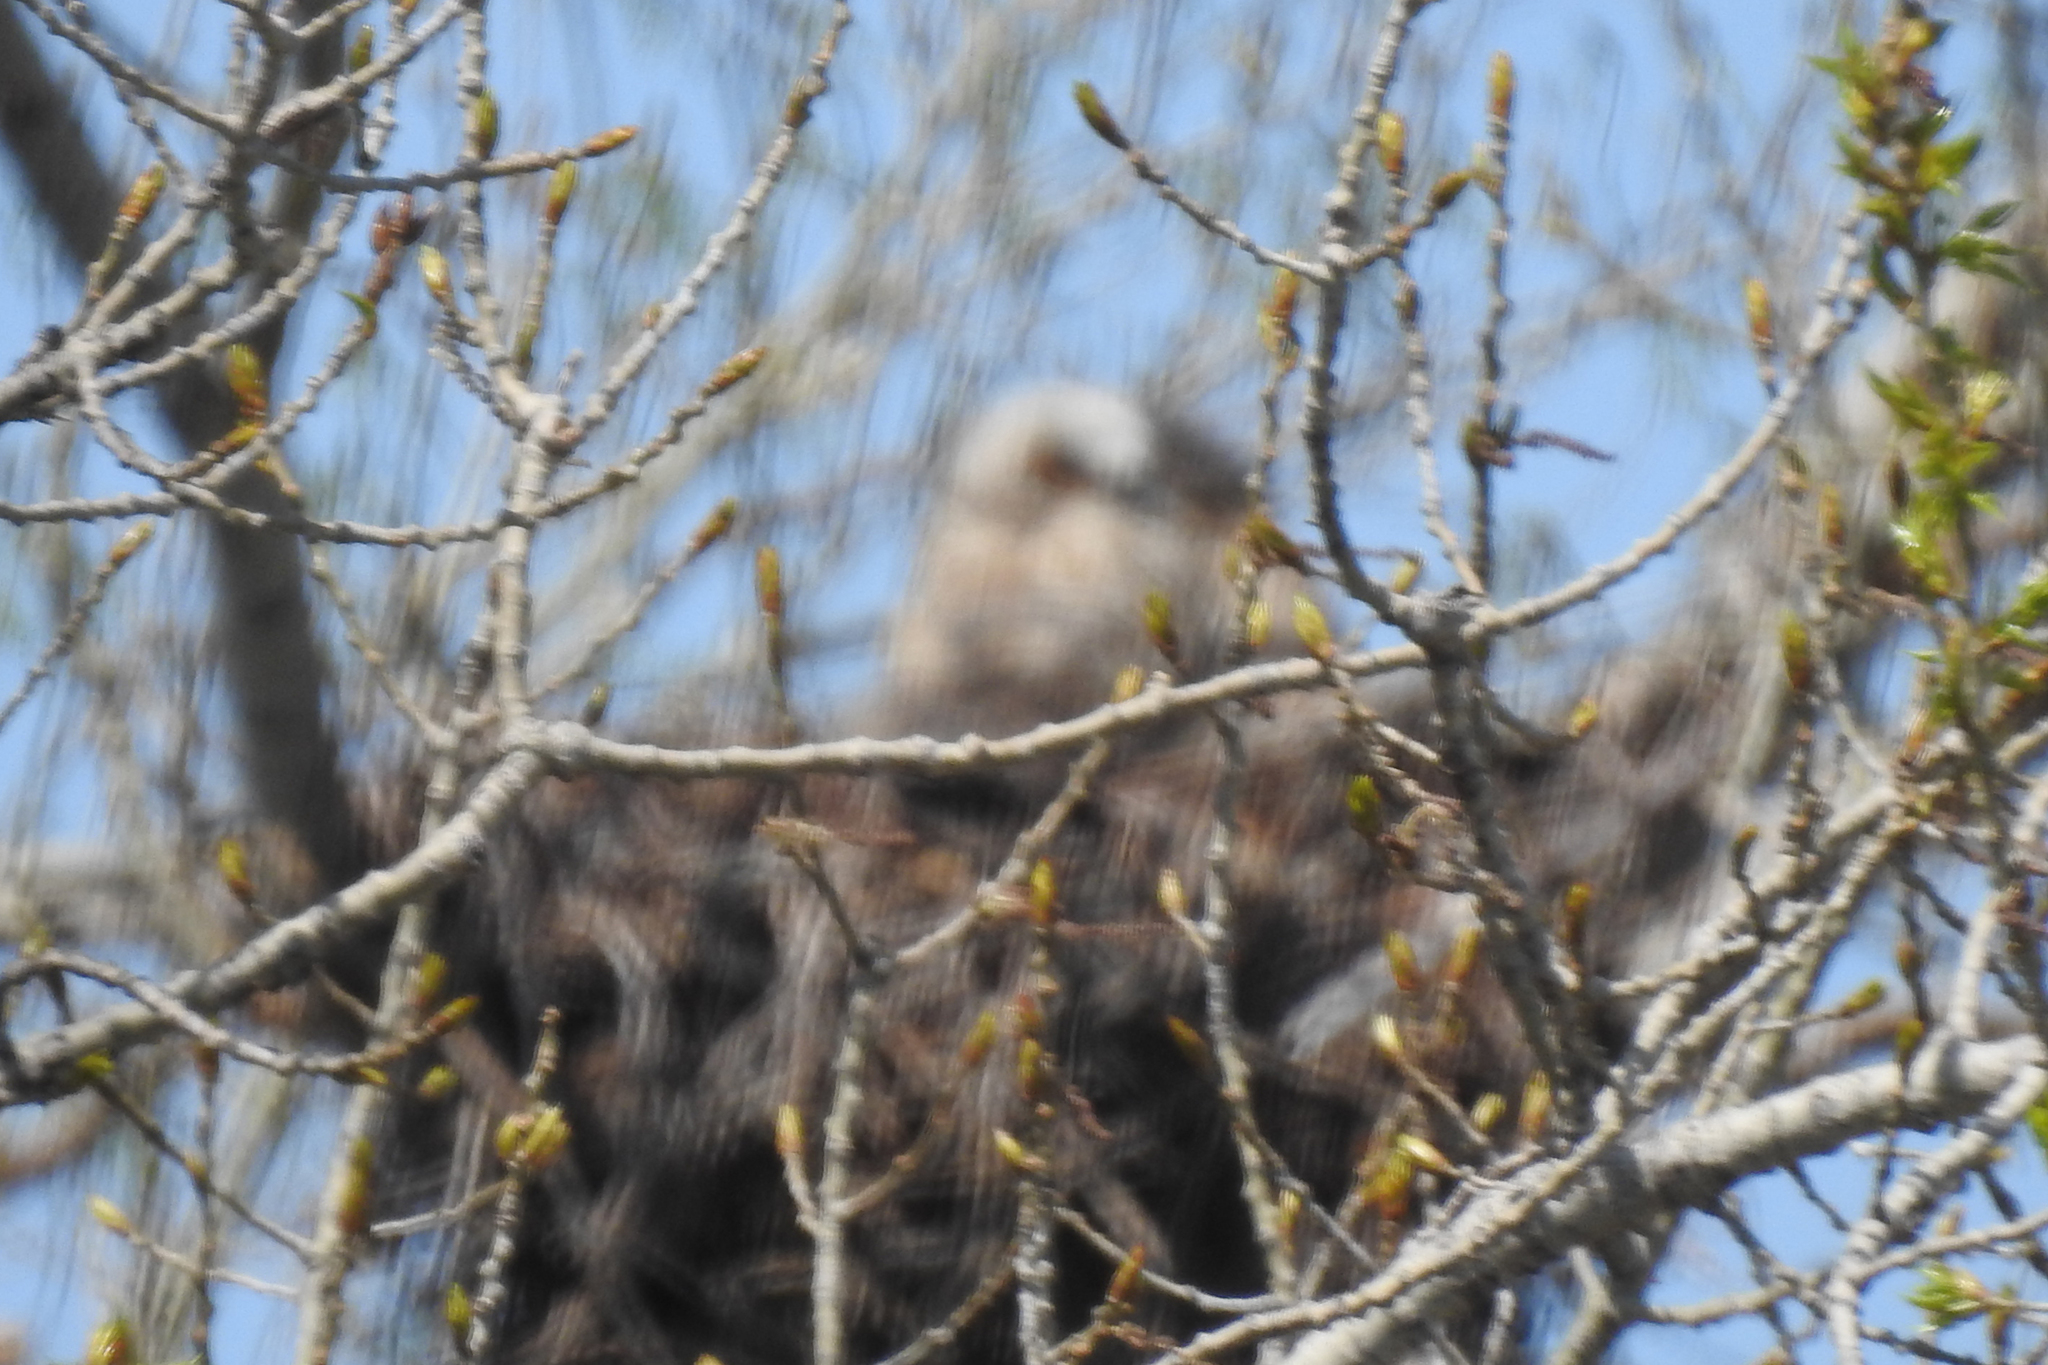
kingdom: Animalia
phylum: Chordata
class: Aves
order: Strigiformes
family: Strigidae
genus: Bubo
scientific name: Bubo virginianus
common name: Great horned owl
